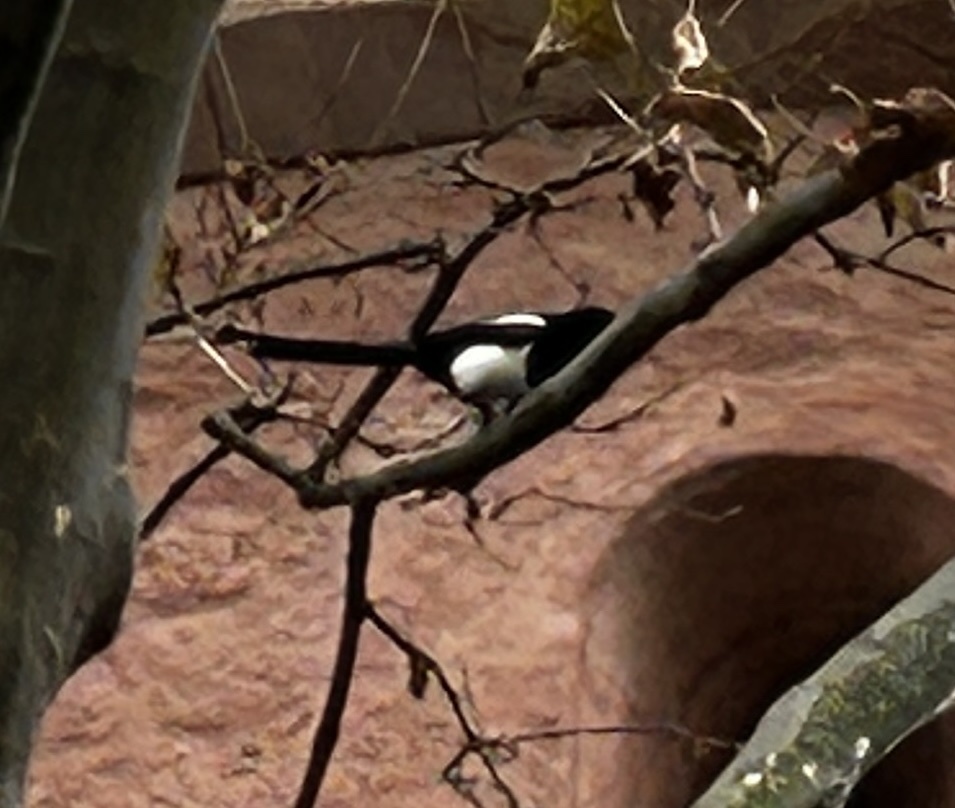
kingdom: Animalia
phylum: Chordata
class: Aves
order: Passeriformes
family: Corvidae
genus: Pica
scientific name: Pica pica
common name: Eurasian magpie
